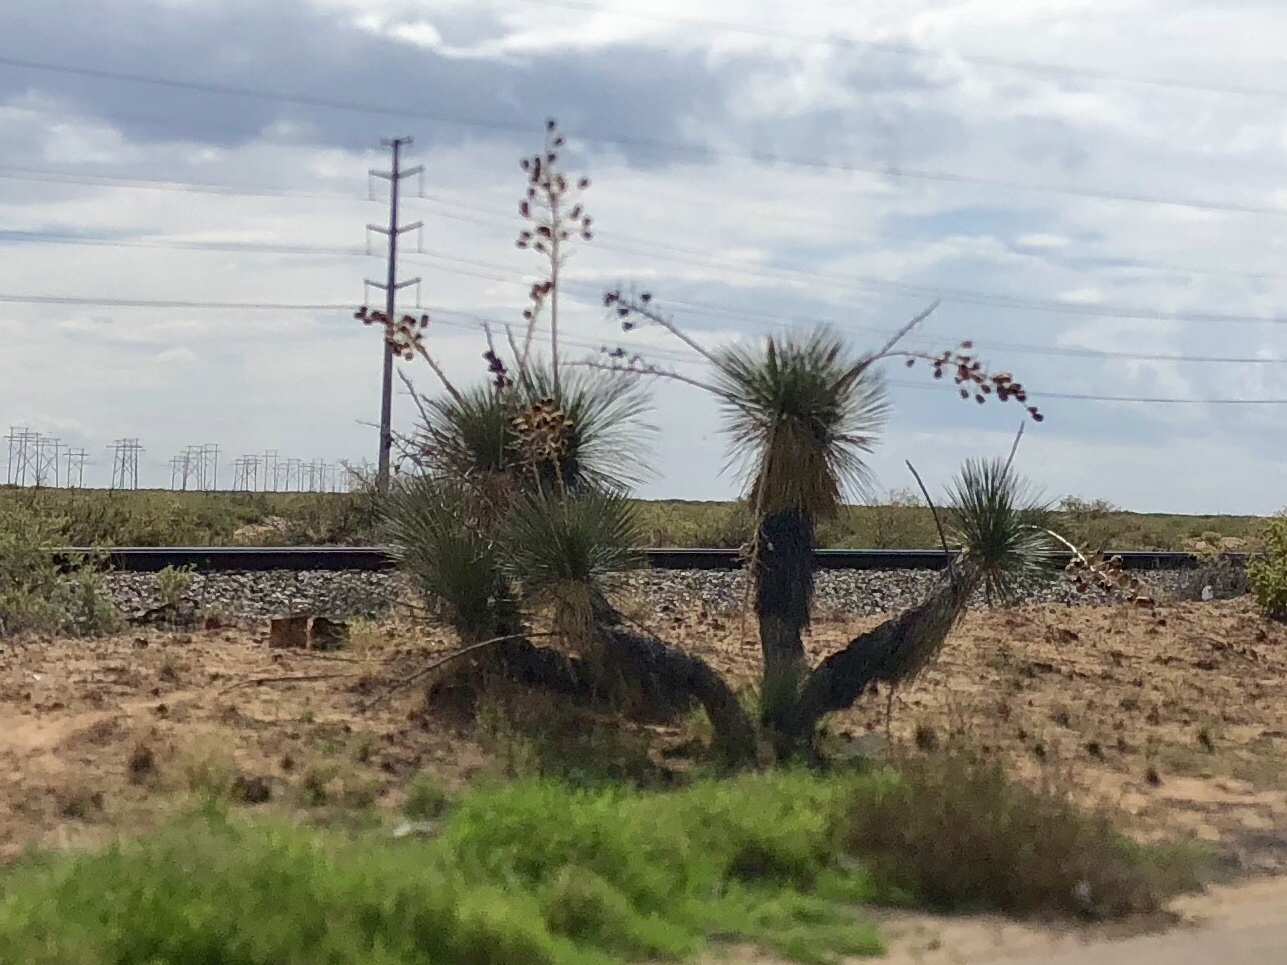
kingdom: Plantae
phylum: Tracheophyta
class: Liliopsida
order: Asparagales
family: Asparagaceae
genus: Yucca
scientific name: Yucca elata
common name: Palmella
